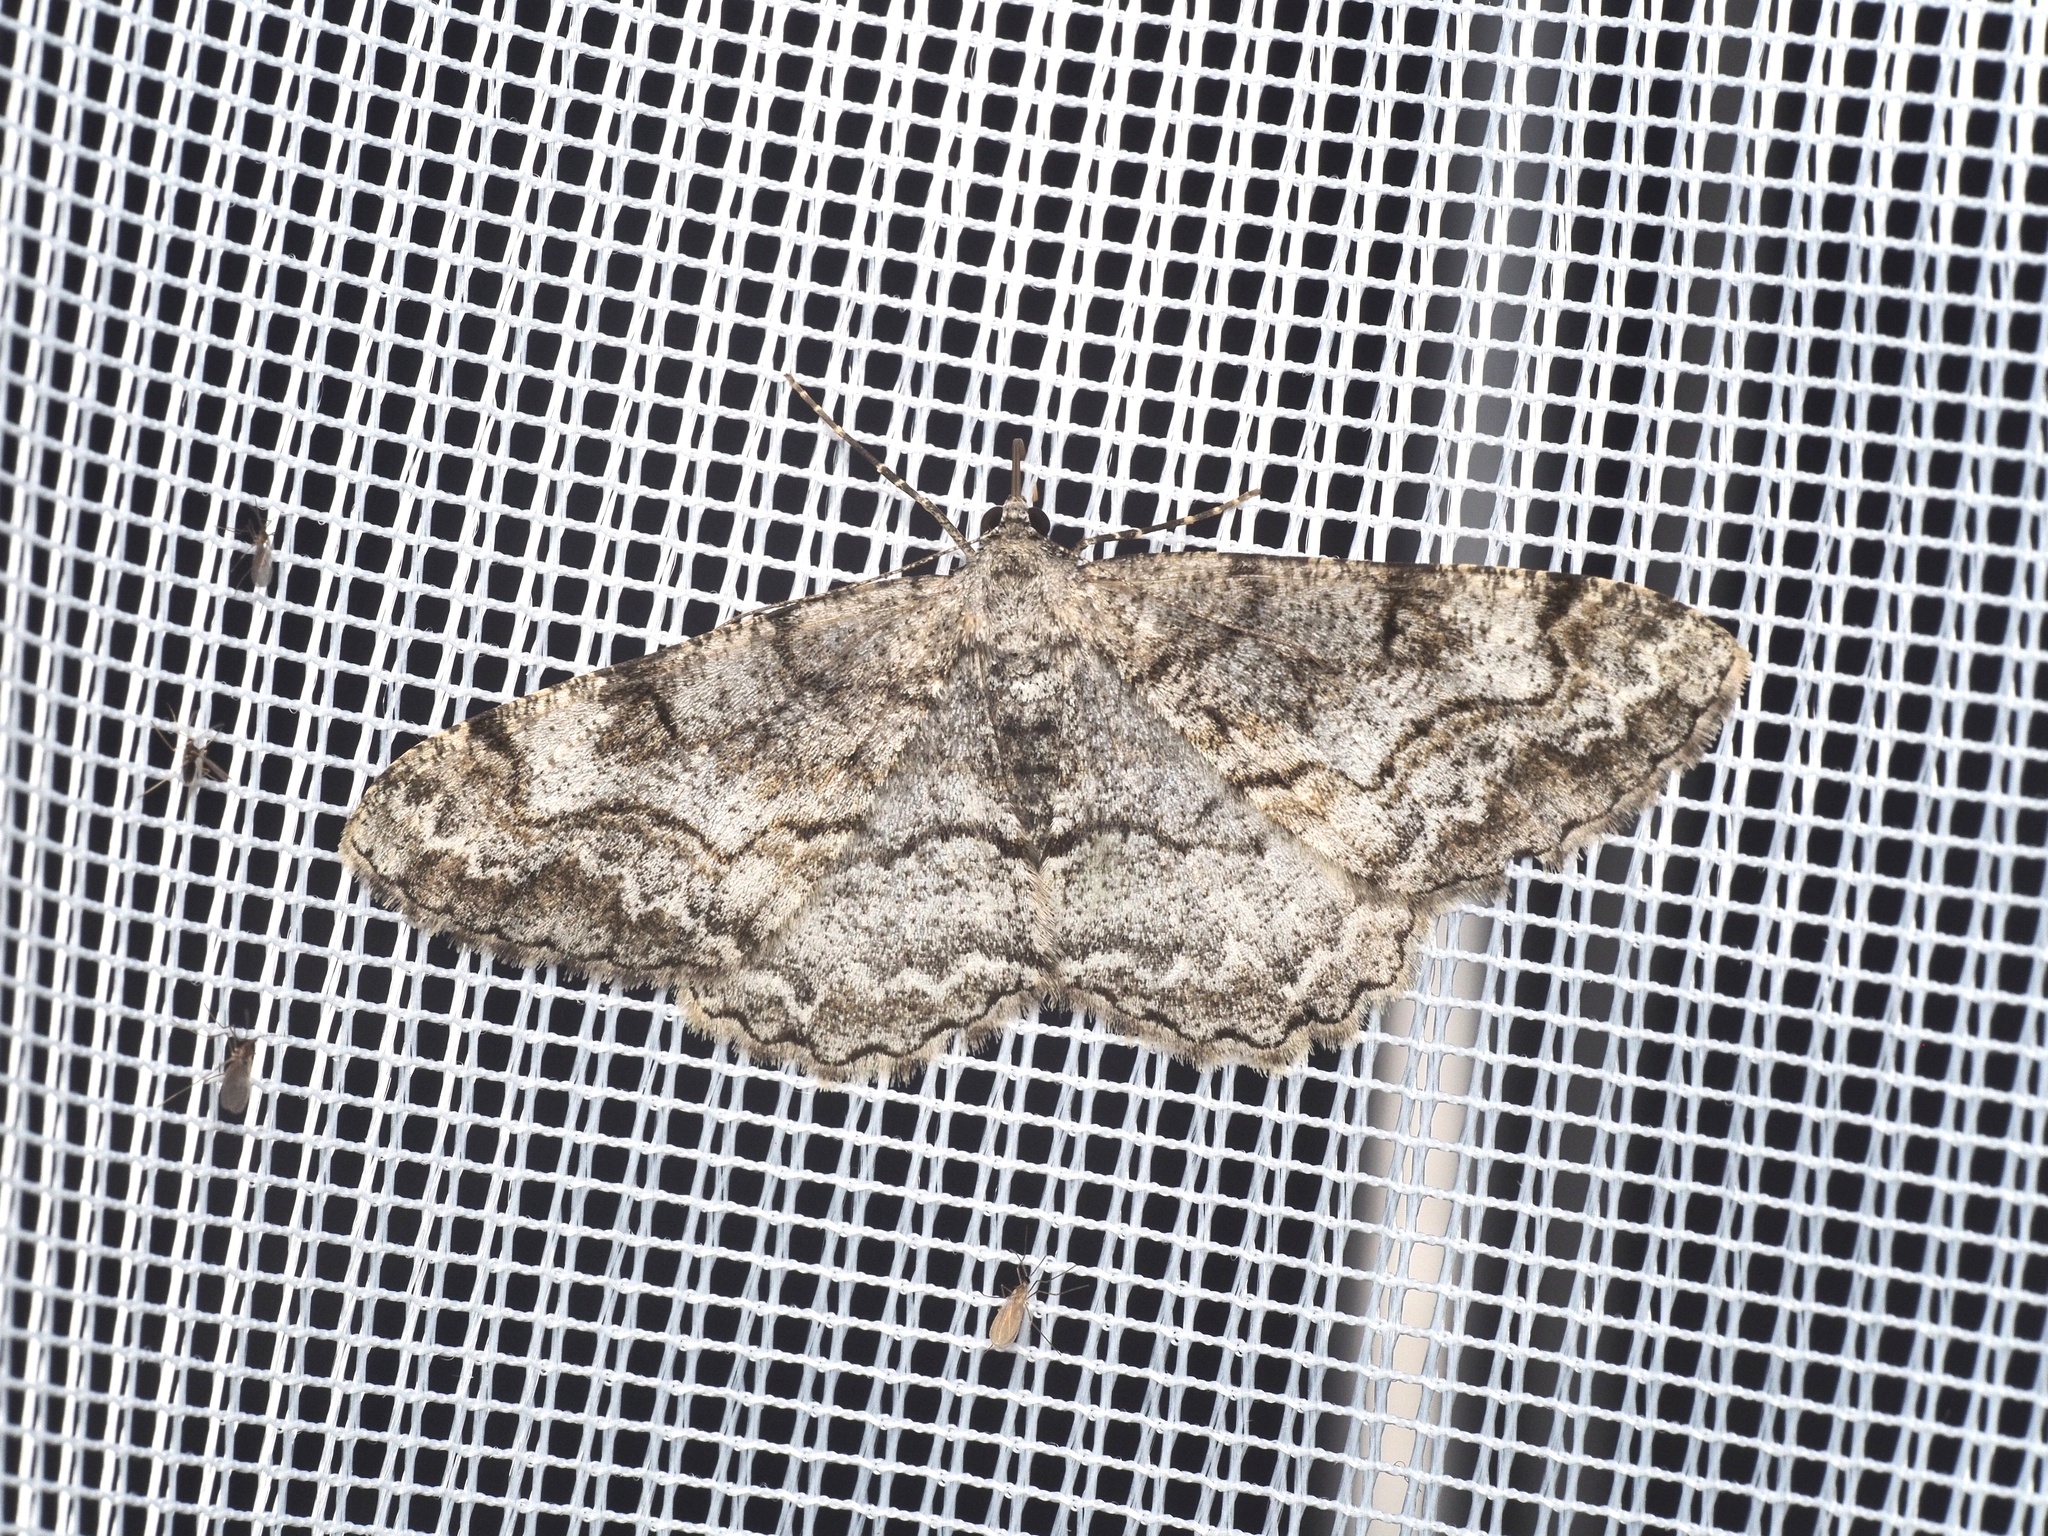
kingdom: Animalia
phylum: Arthropoda
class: Insecta
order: Lepidoptera
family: Geometridae
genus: Alcis
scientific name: Alcis repandata
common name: Mottled beauty
